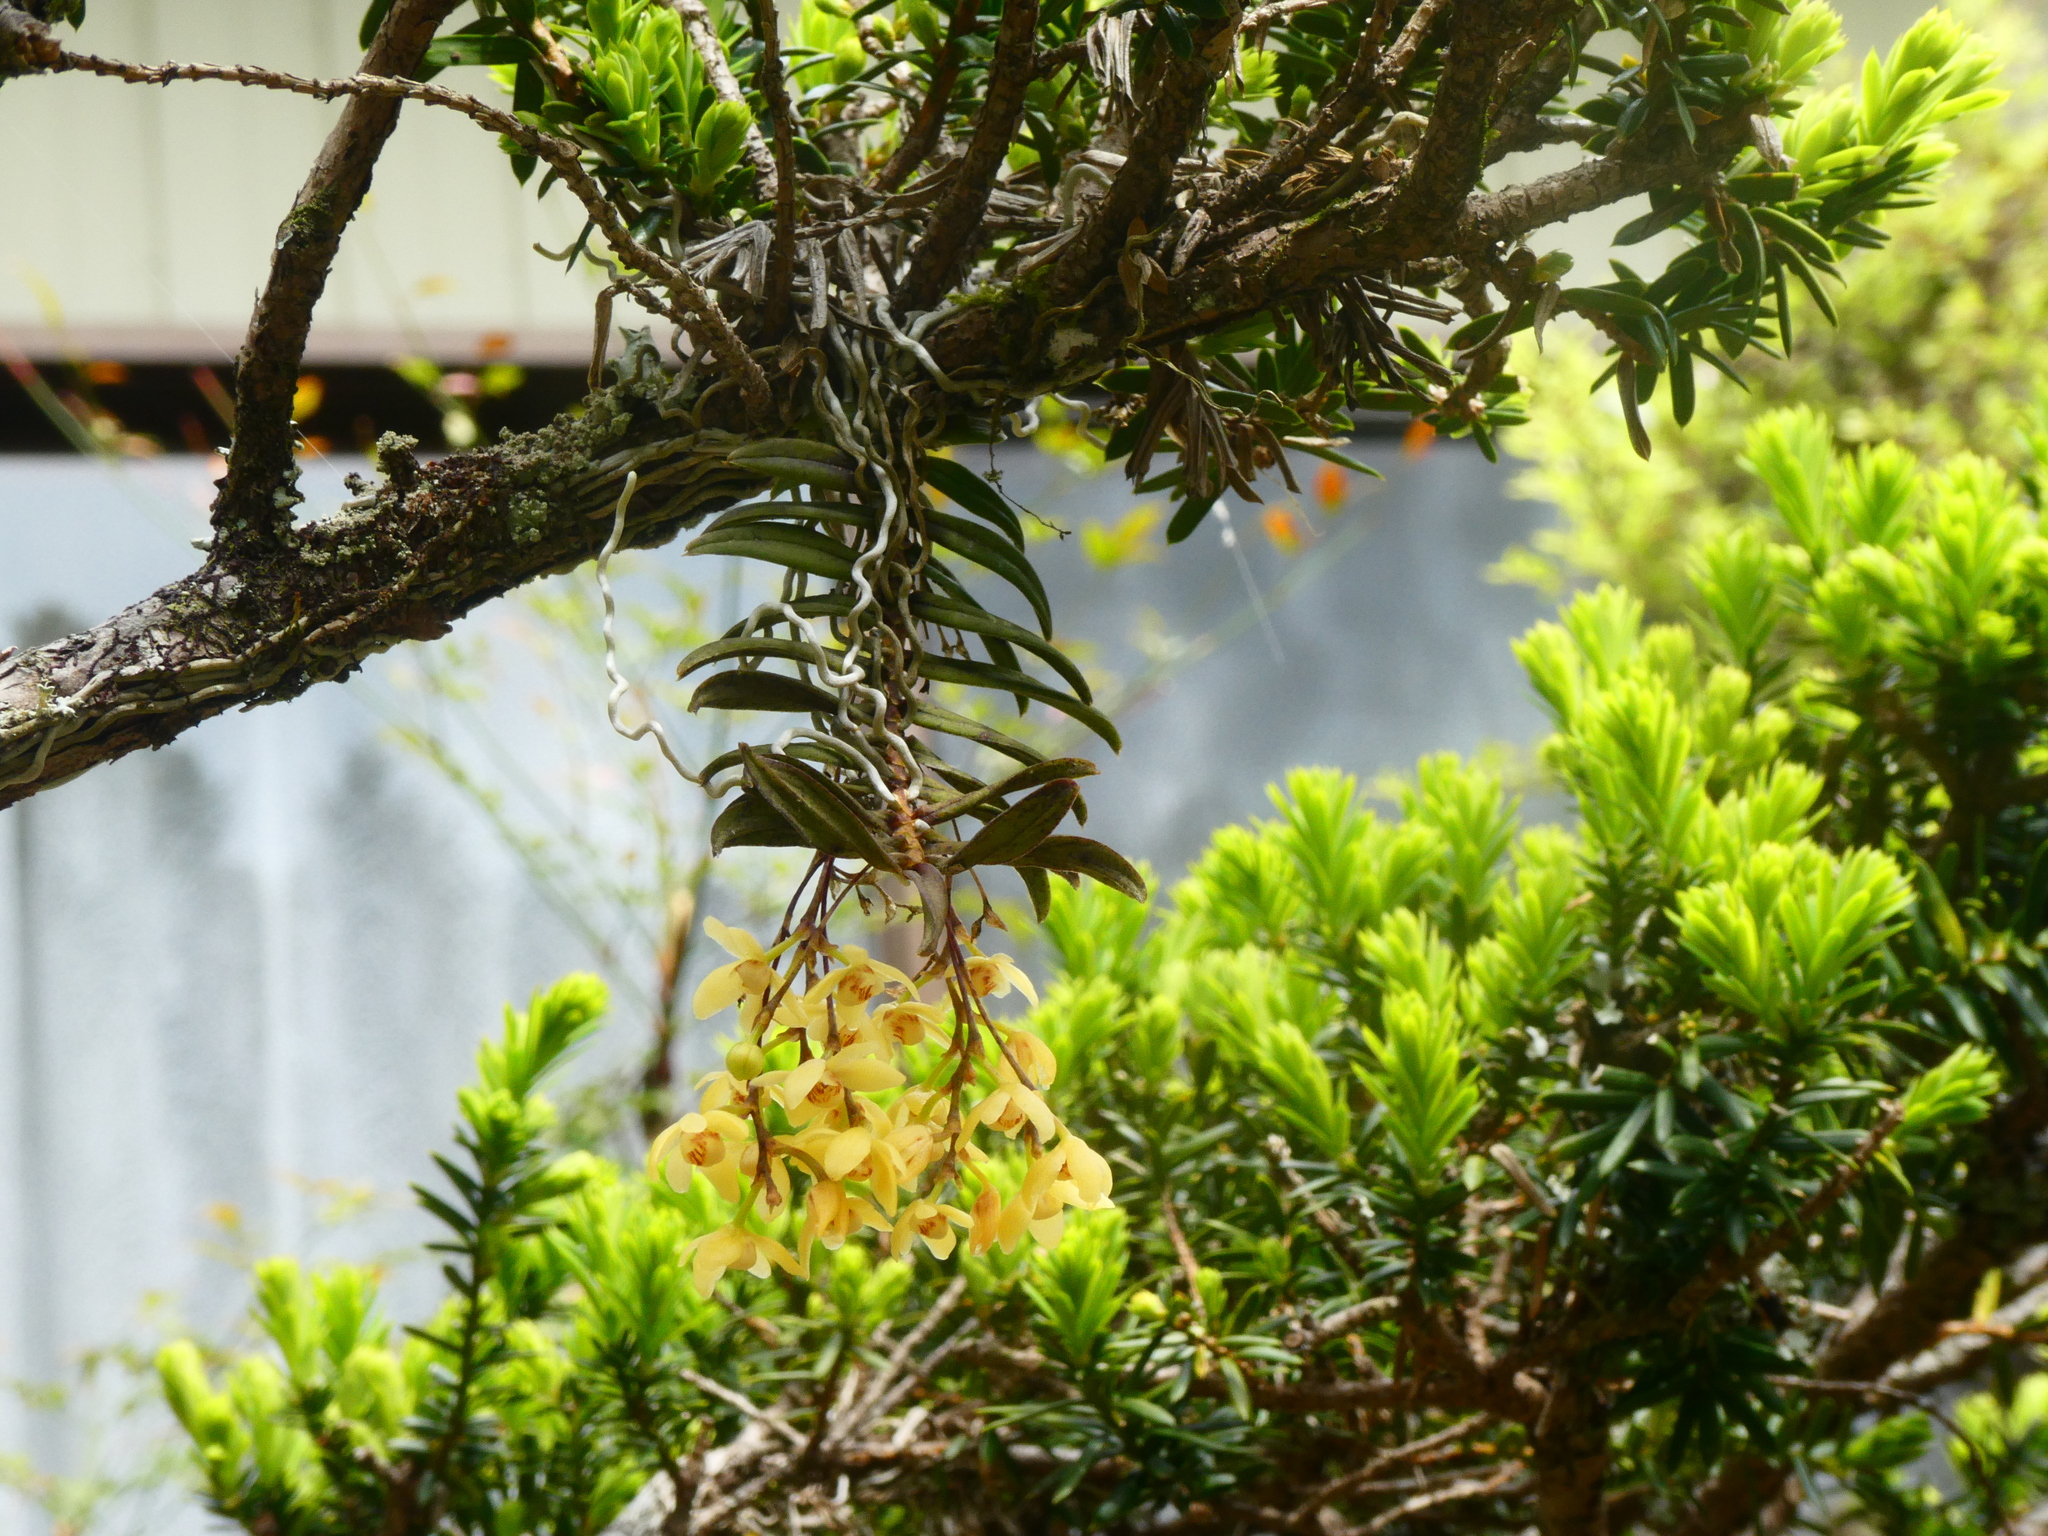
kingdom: Plantae
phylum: Tracheophyta
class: Liliopsida
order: Asparagales
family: Orchidaceae
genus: Thrixspermum
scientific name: Thrixspermum japonicum
